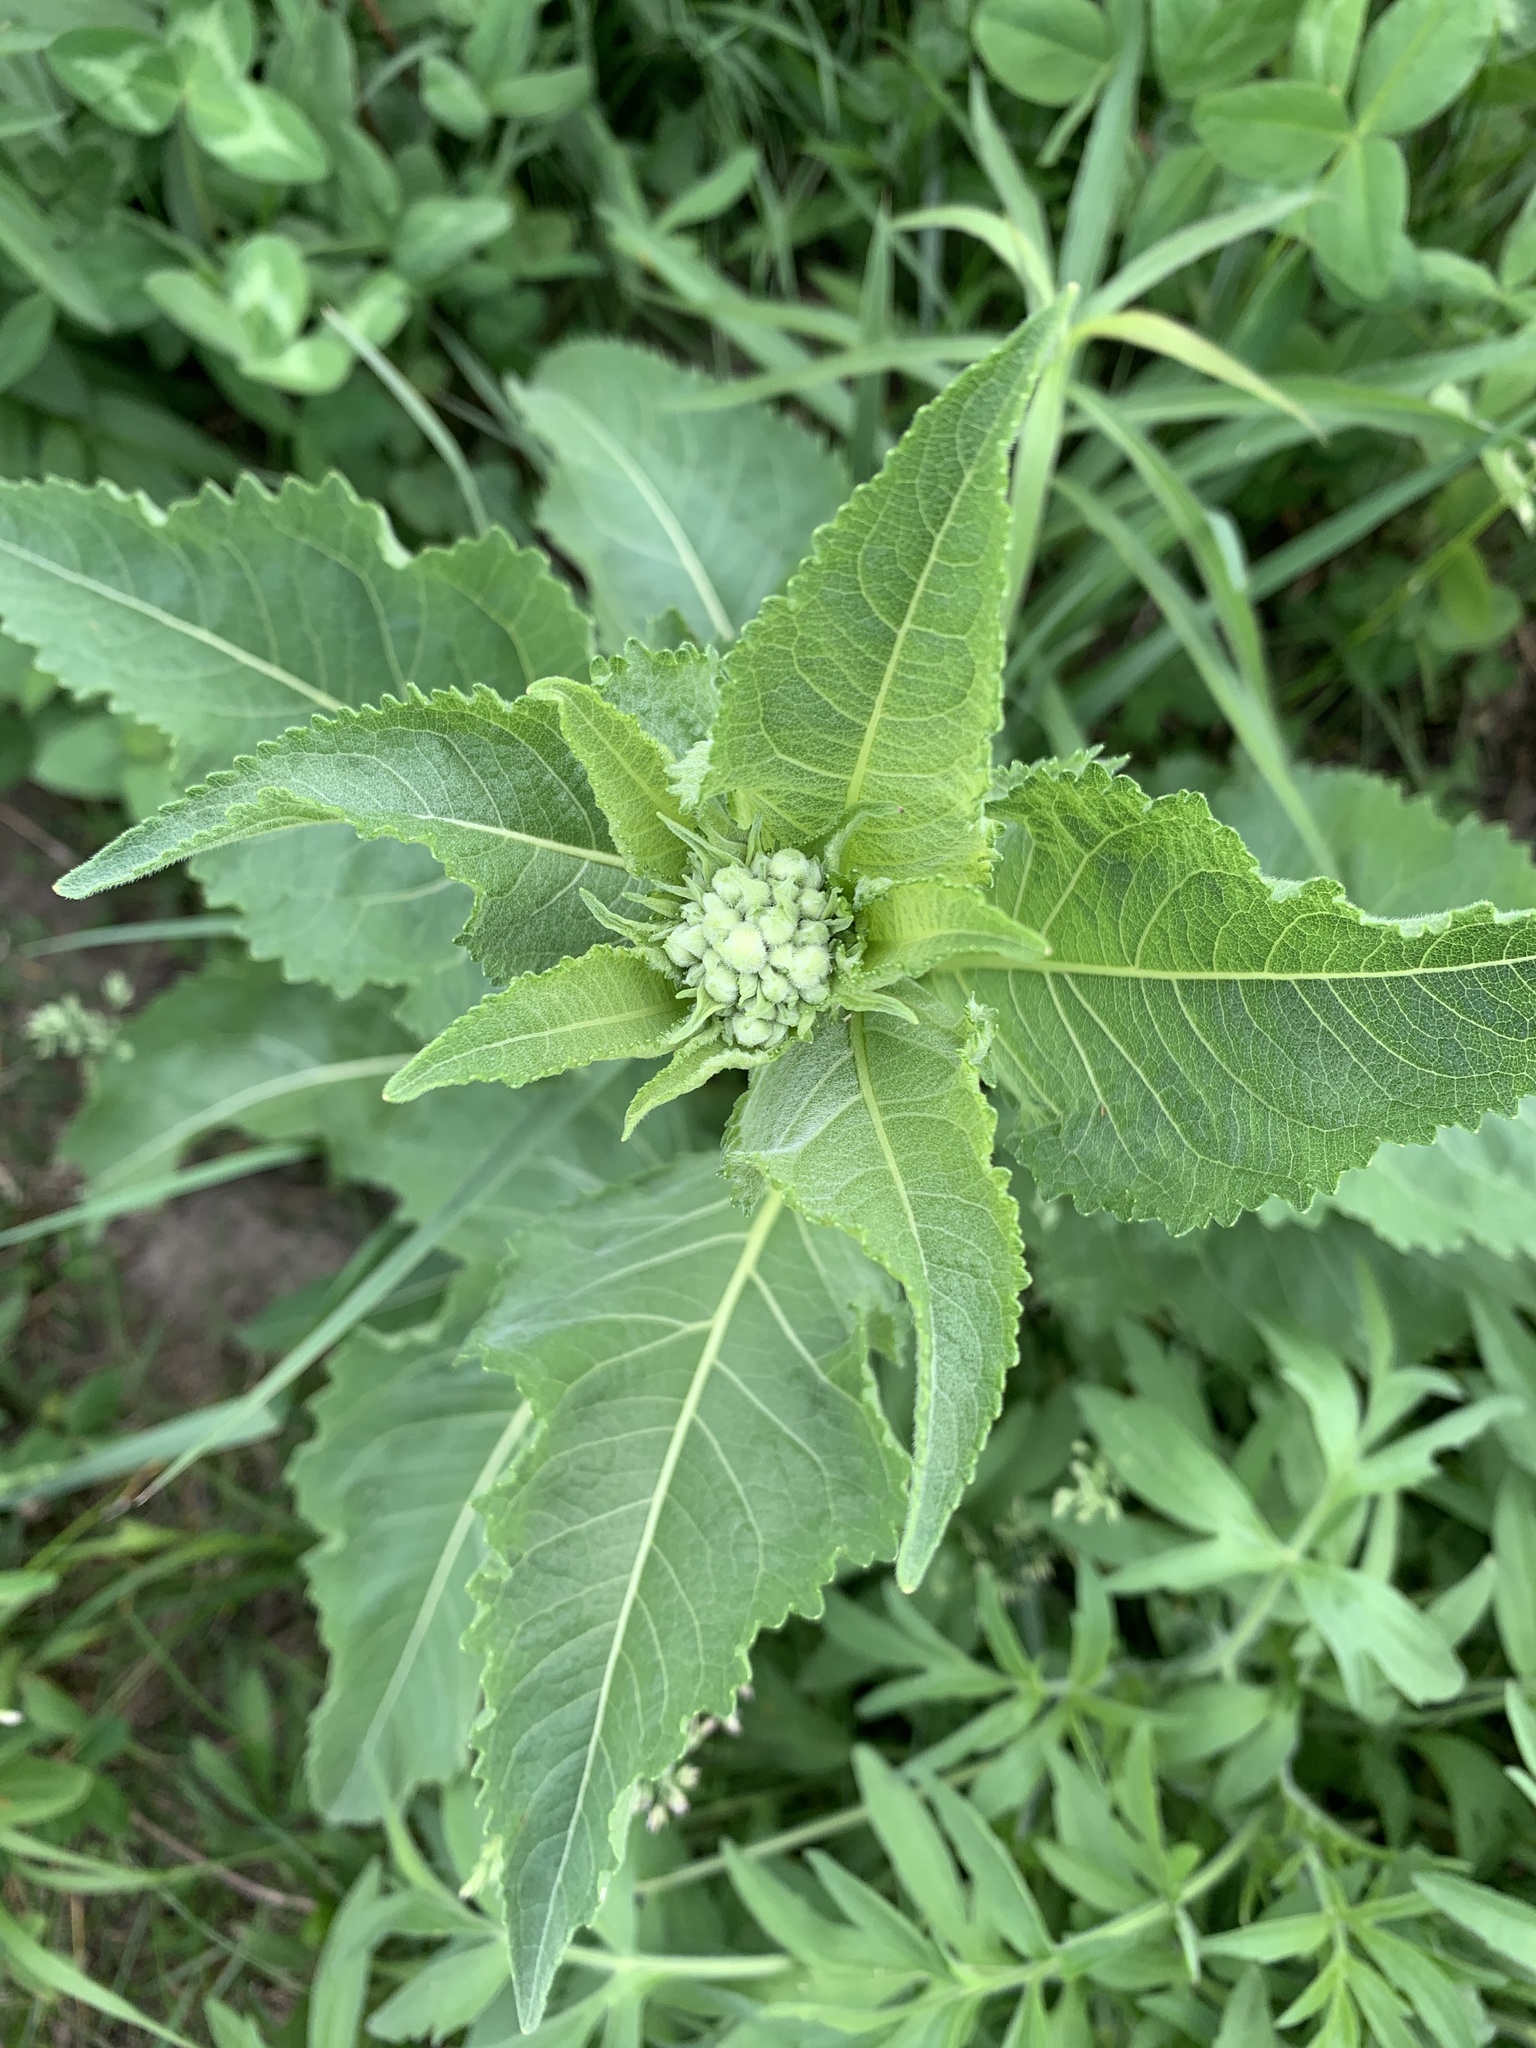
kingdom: Plantae
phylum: Tracheophyta
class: Magnoliopsida
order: Asterales
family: Asteraceae
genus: Parthenium
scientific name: Parthenium integrifolium
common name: American feverfew
